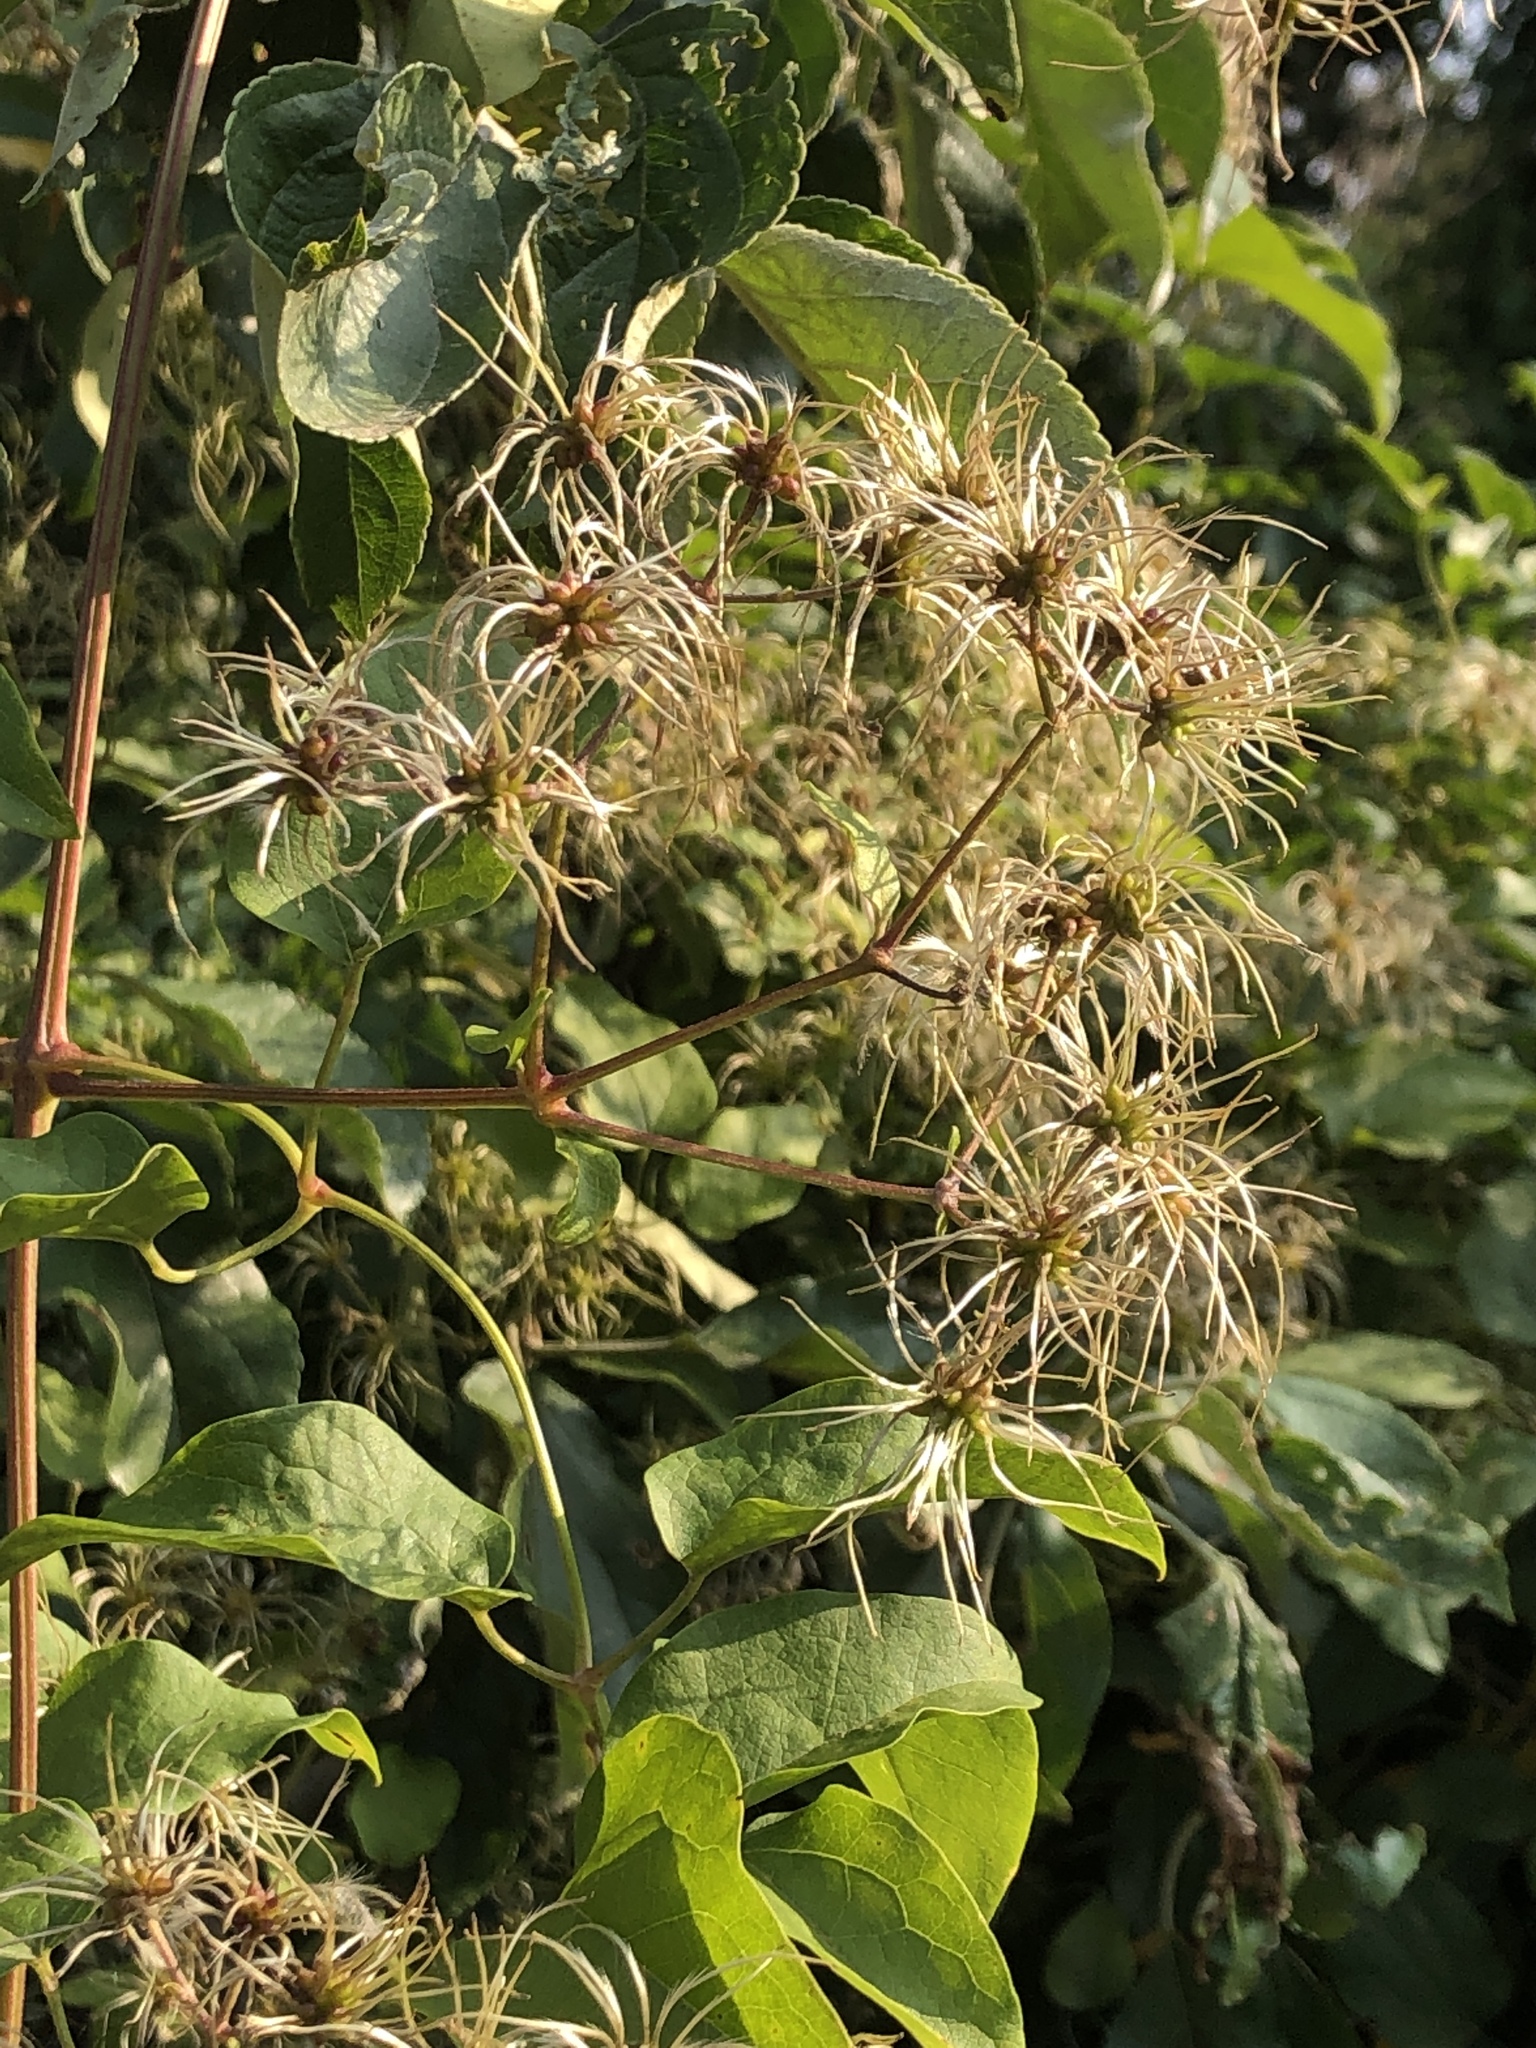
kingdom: Plantae
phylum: Tracheophyta
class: Magnoliopsida
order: Ranunculales
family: Ranunculaceae
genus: Clematis
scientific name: Clematis vitalba
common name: Evergreen clematis
